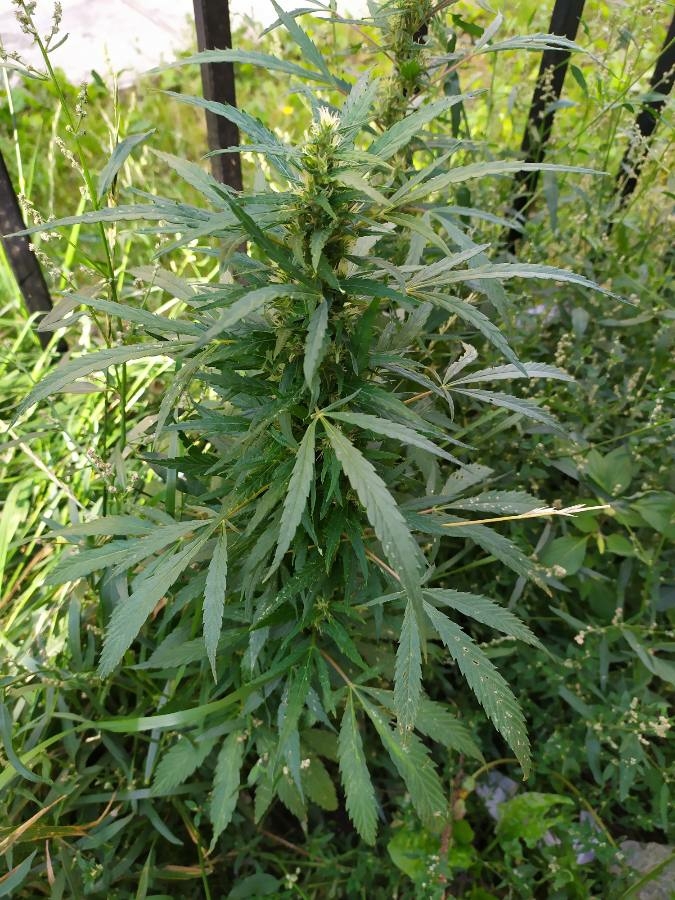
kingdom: Plantae
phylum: Tracheophyta
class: Magnoliopsida
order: Rosales
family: Cannabaceae
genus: Cannabis
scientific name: Cannabis sativa
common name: Hemp
